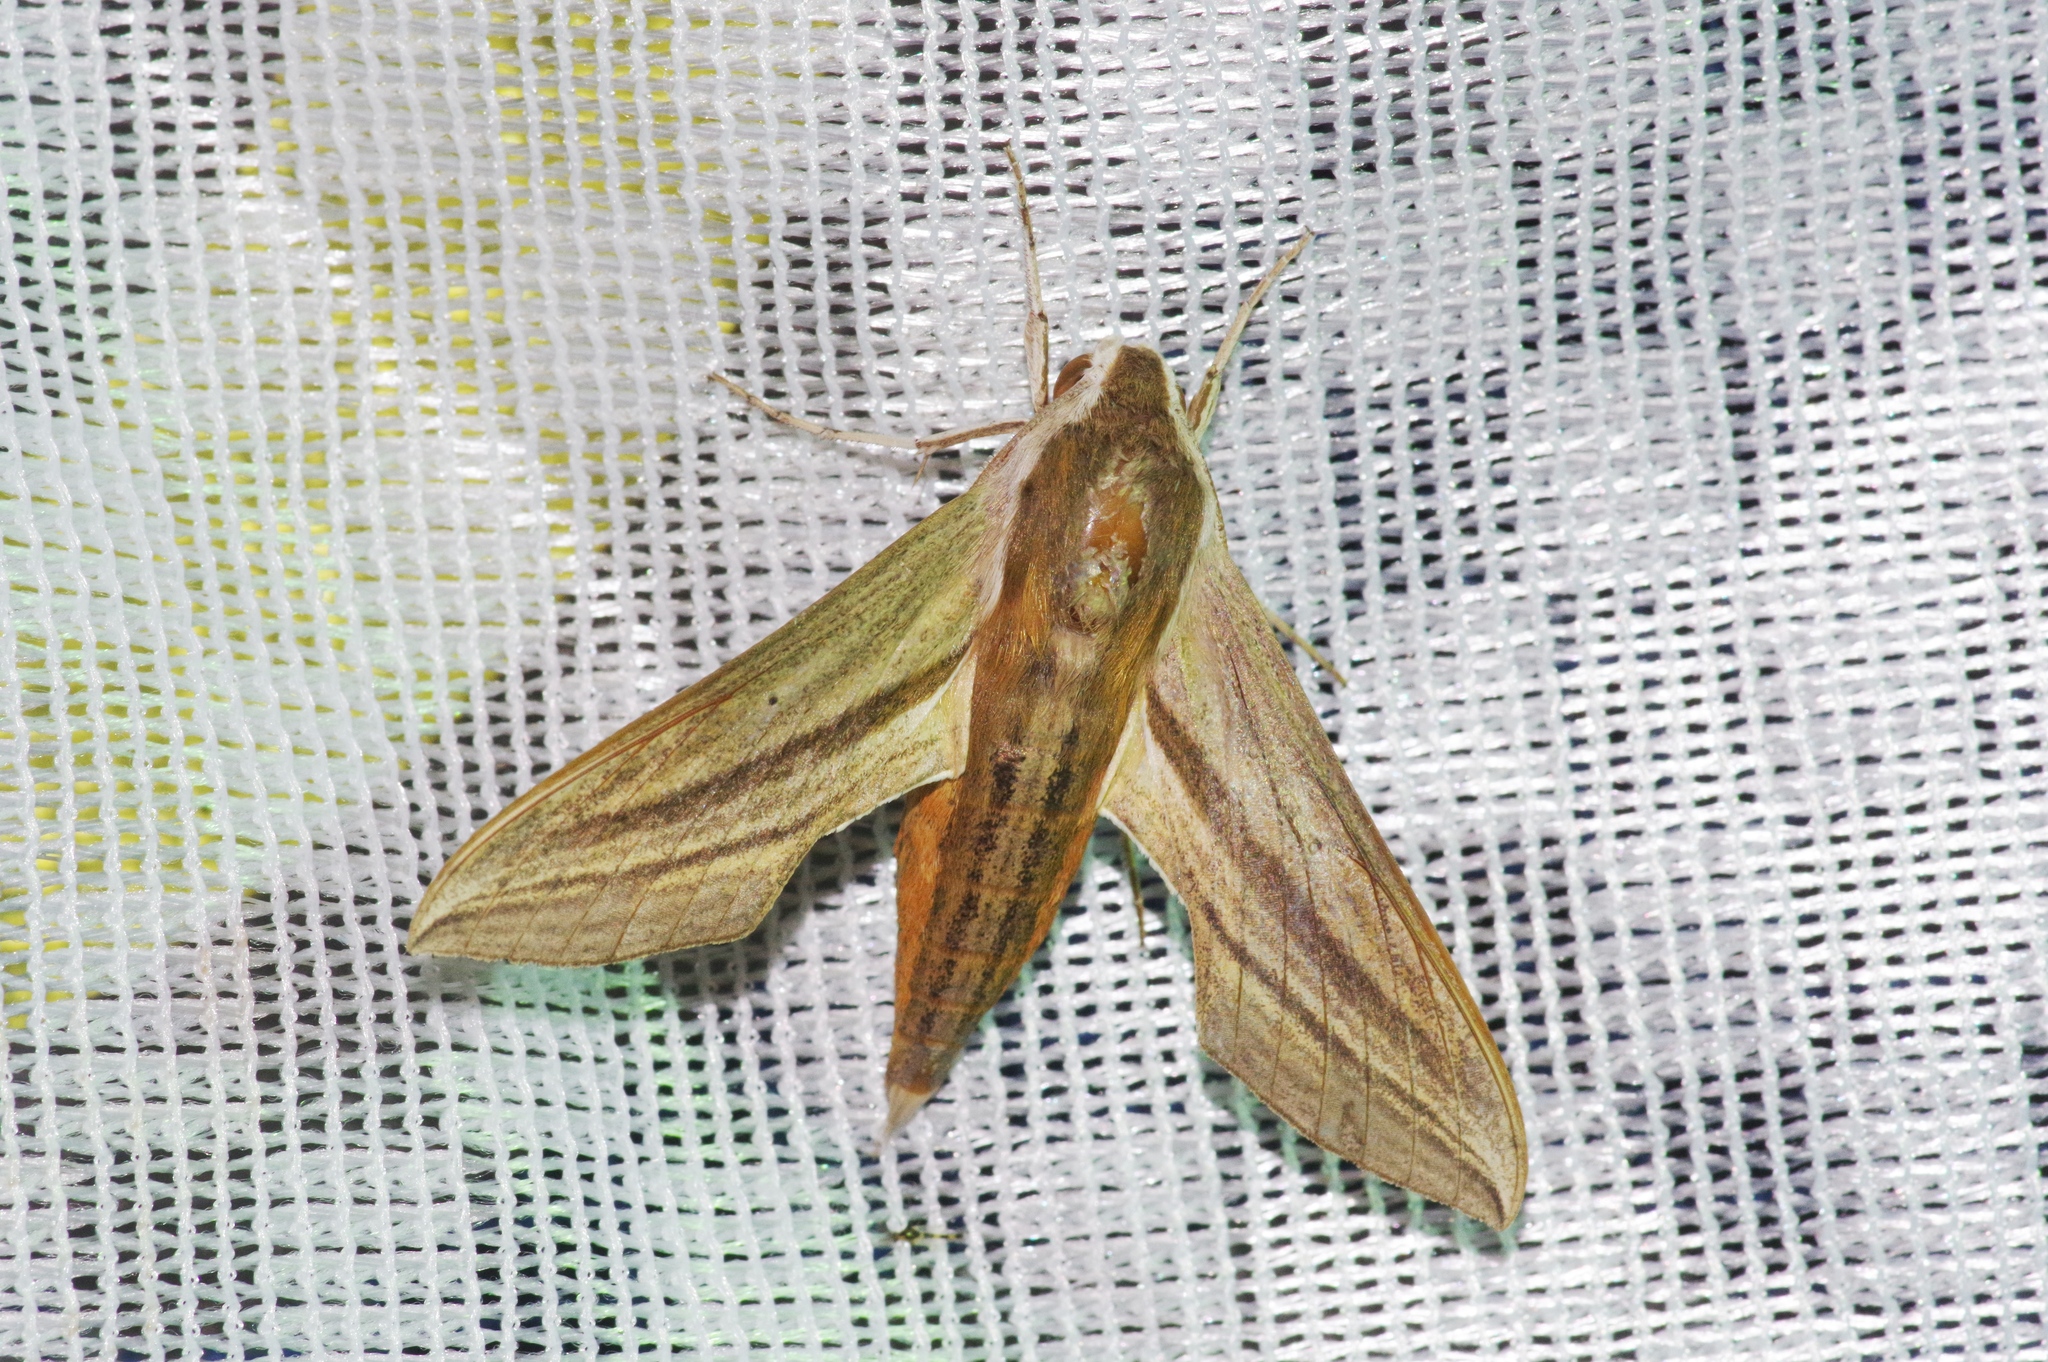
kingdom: Animalia
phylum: Arthropoda
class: Insecta
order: Lepidoptera
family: Sphingidae
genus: Theretra
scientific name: Theretra japonica
